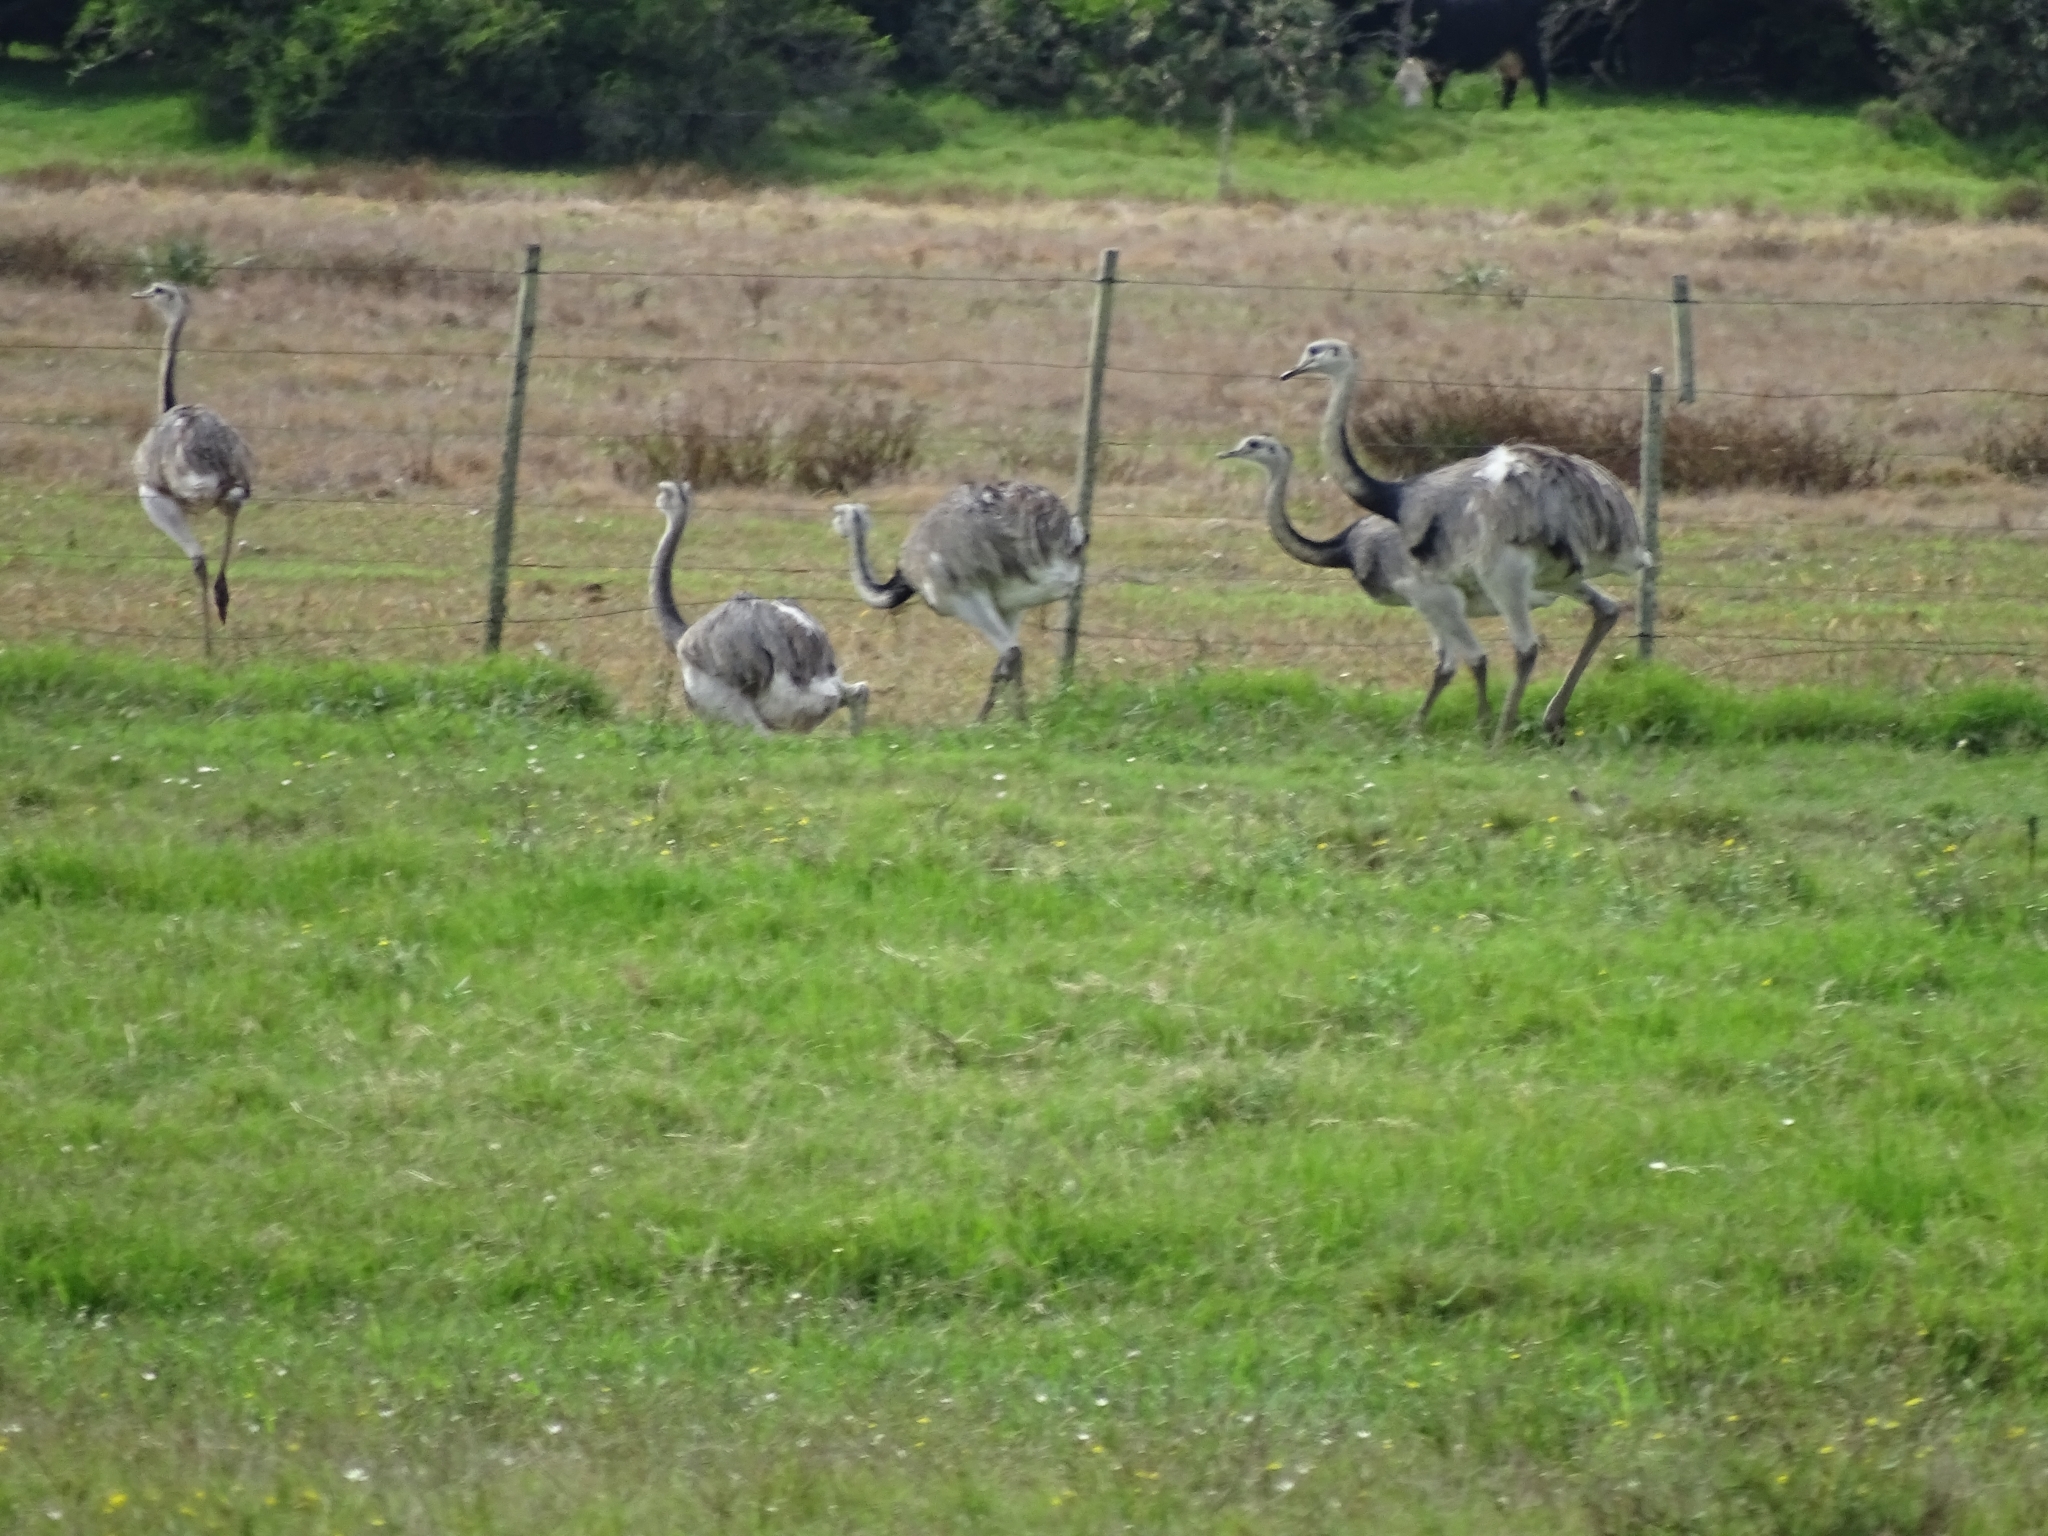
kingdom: Animalia
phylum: Chordata
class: Aves
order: Rheiformes
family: Rheidae
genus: Rhea
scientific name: Rhea americana
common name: Greater rhea
